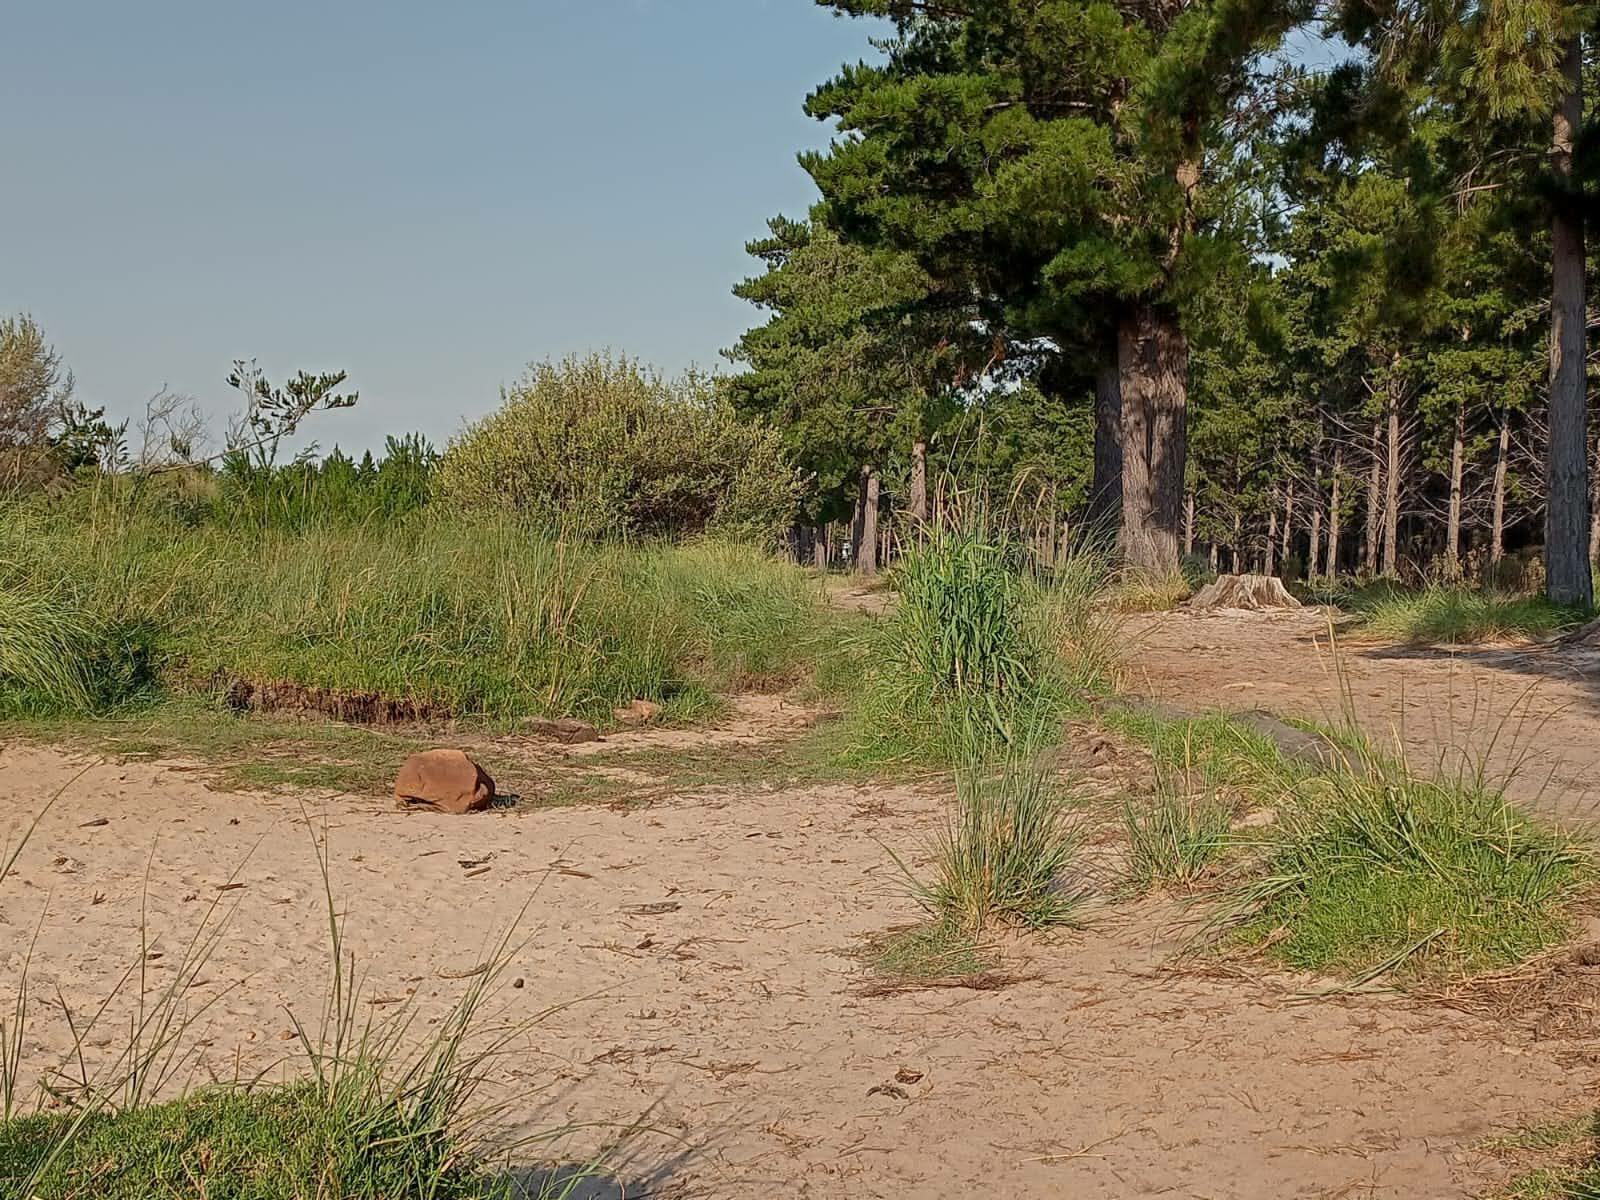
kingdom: Plantae
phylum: Tracheophyta
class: Liliopsida
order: Poales
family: Poaceae
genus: Paspalum
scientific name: Paspalum urvillei
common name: Vasey's grass
